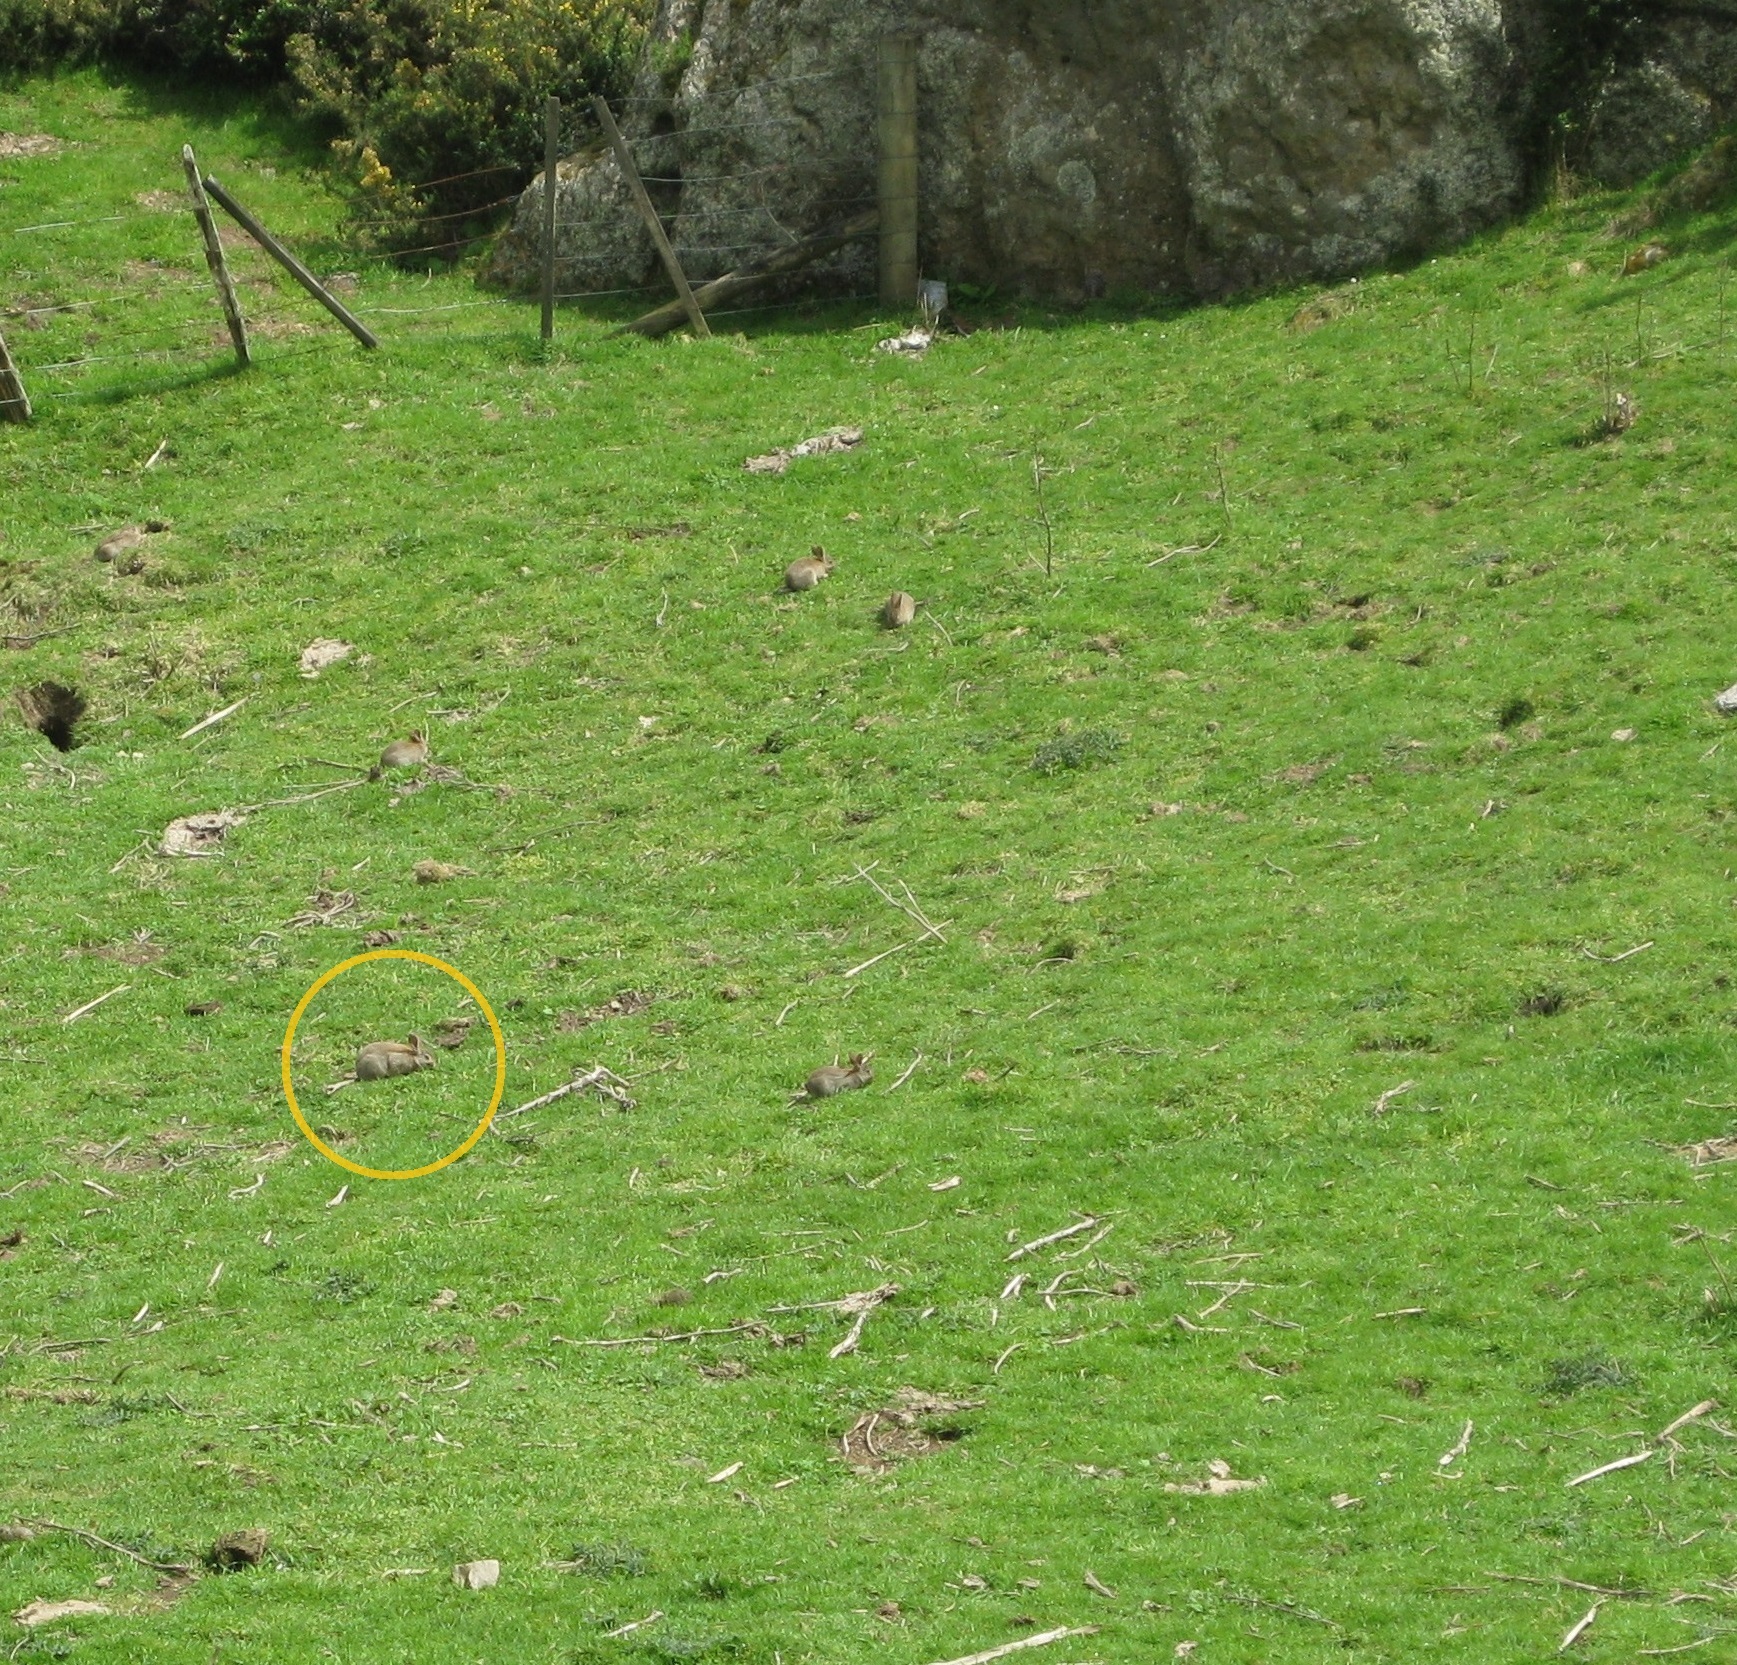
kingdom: Animalia
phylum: Chordata
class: Mammalia
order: Lagomorpha
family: Leporidae
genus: Oryctolagus
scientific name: Oryctolagus cuniculus
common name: European rabbit
